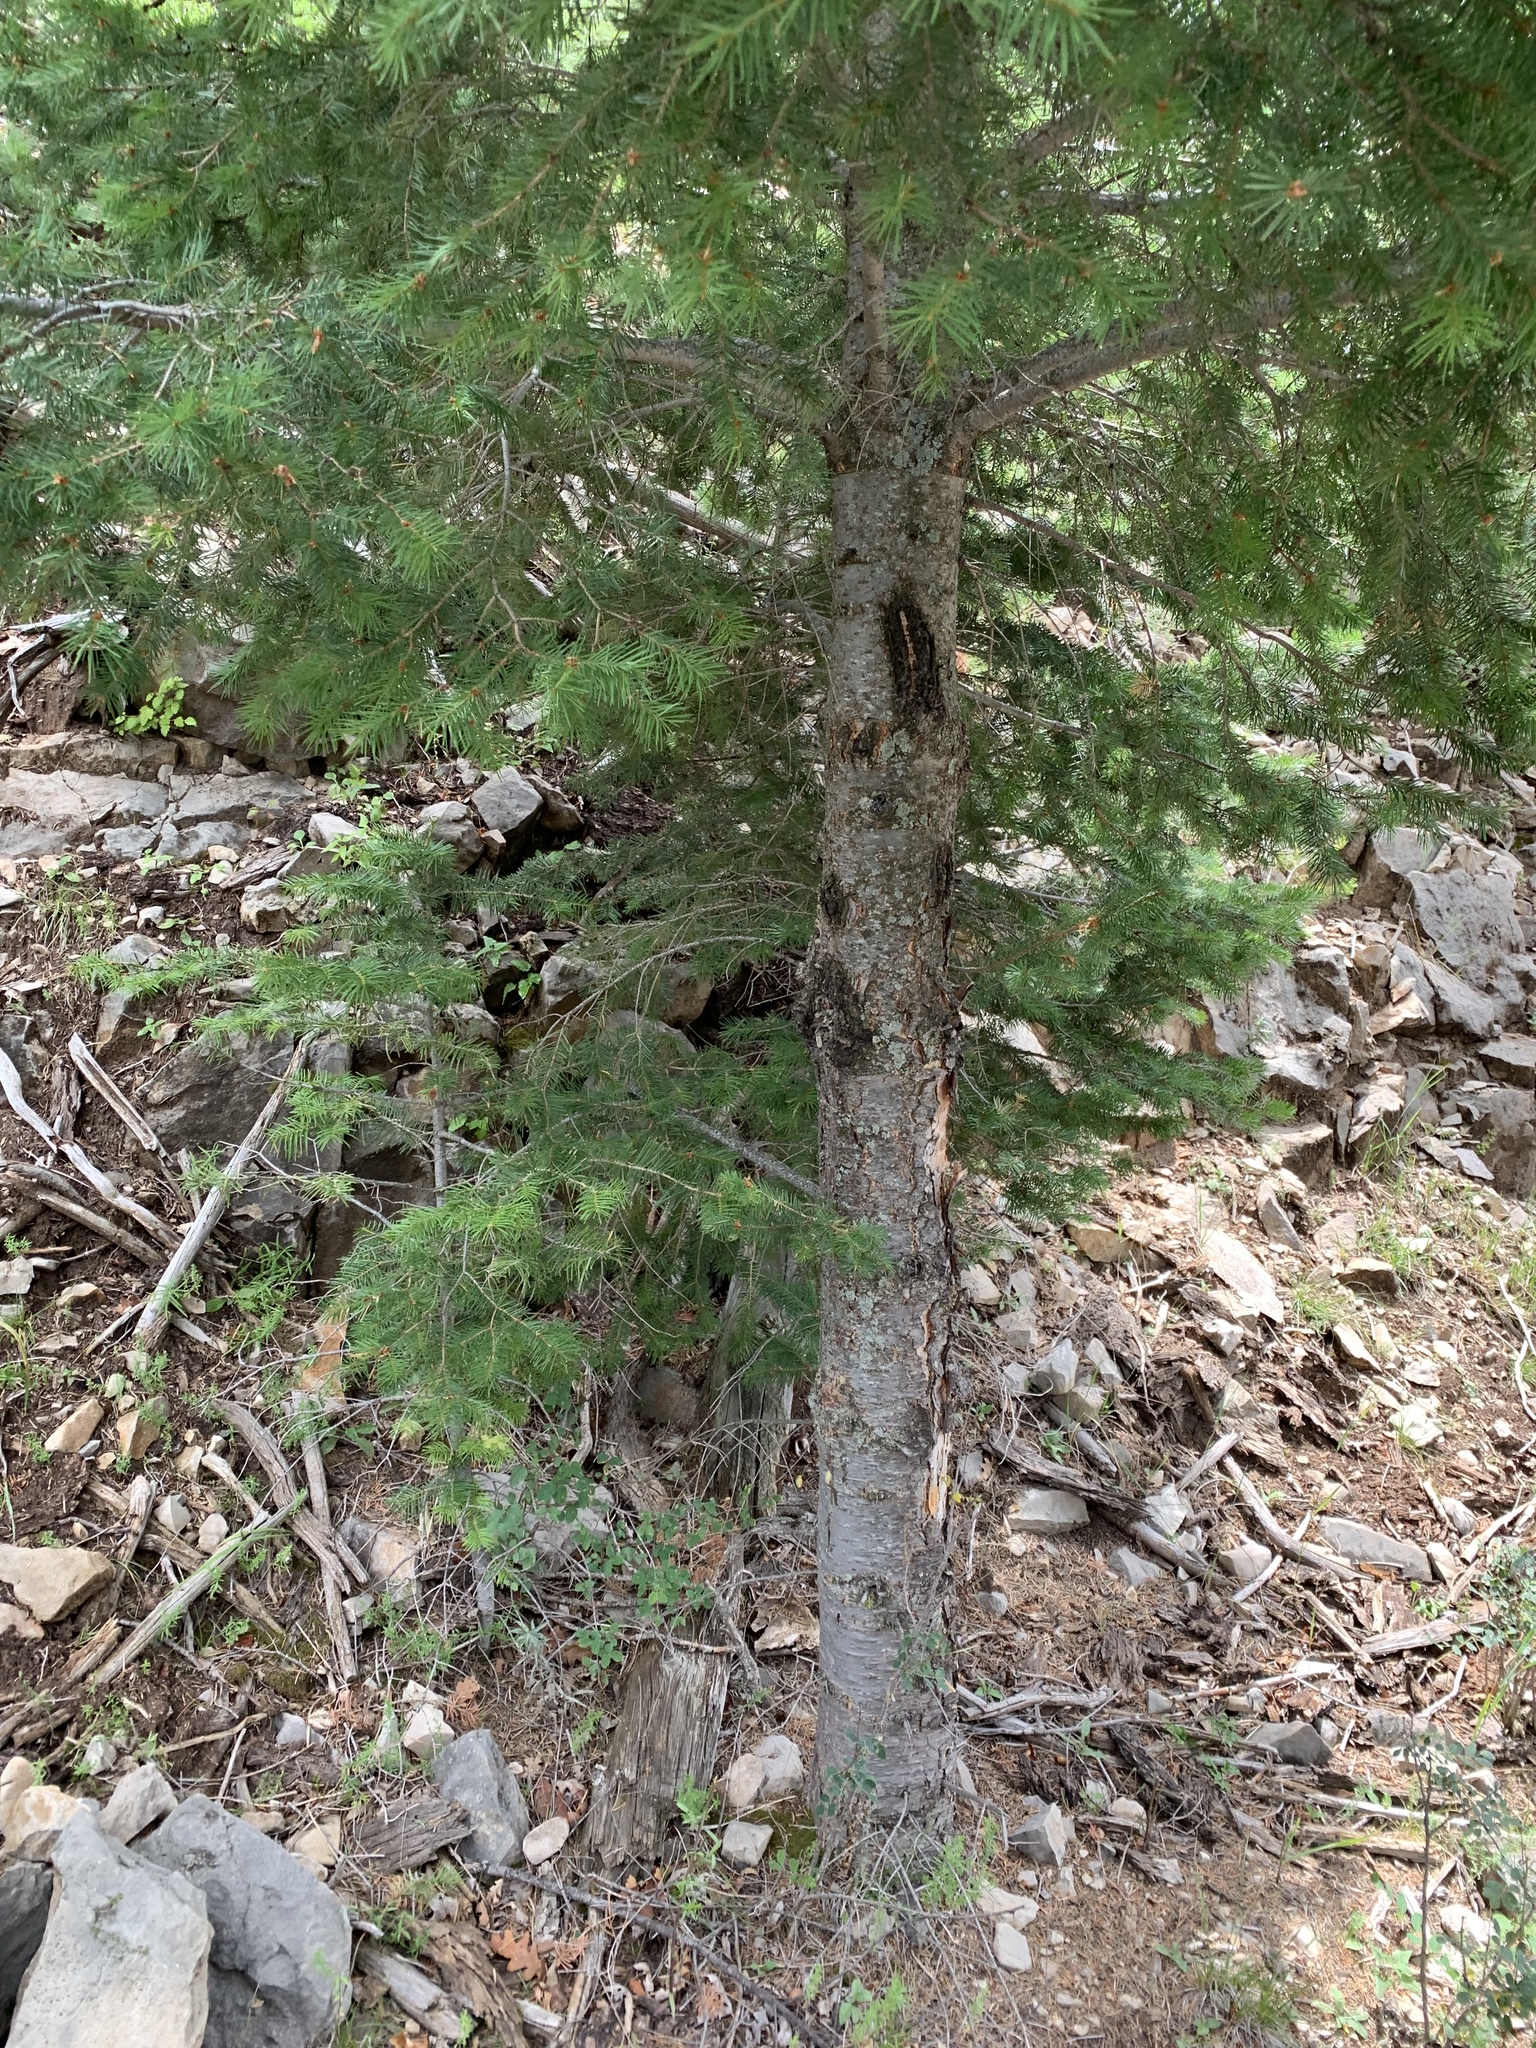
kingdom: Plantae
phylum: Tracheophyta
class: Pinopsida
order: Pinales
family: Pinaceae
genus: Pseudotsuga
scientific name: Pseudotsuga menziesii
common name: Douglas fir
